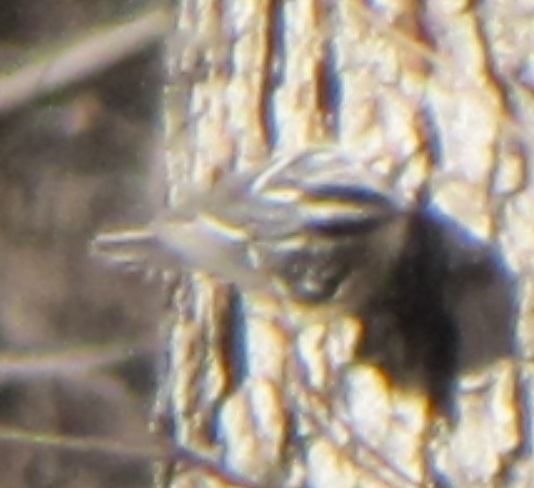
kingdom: Animalia
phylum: Chordata
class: Aves
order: Passeriformes
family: Parulidae
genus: Mniotilta
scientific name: Mniotilta varia
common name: Black-and-white warbler
